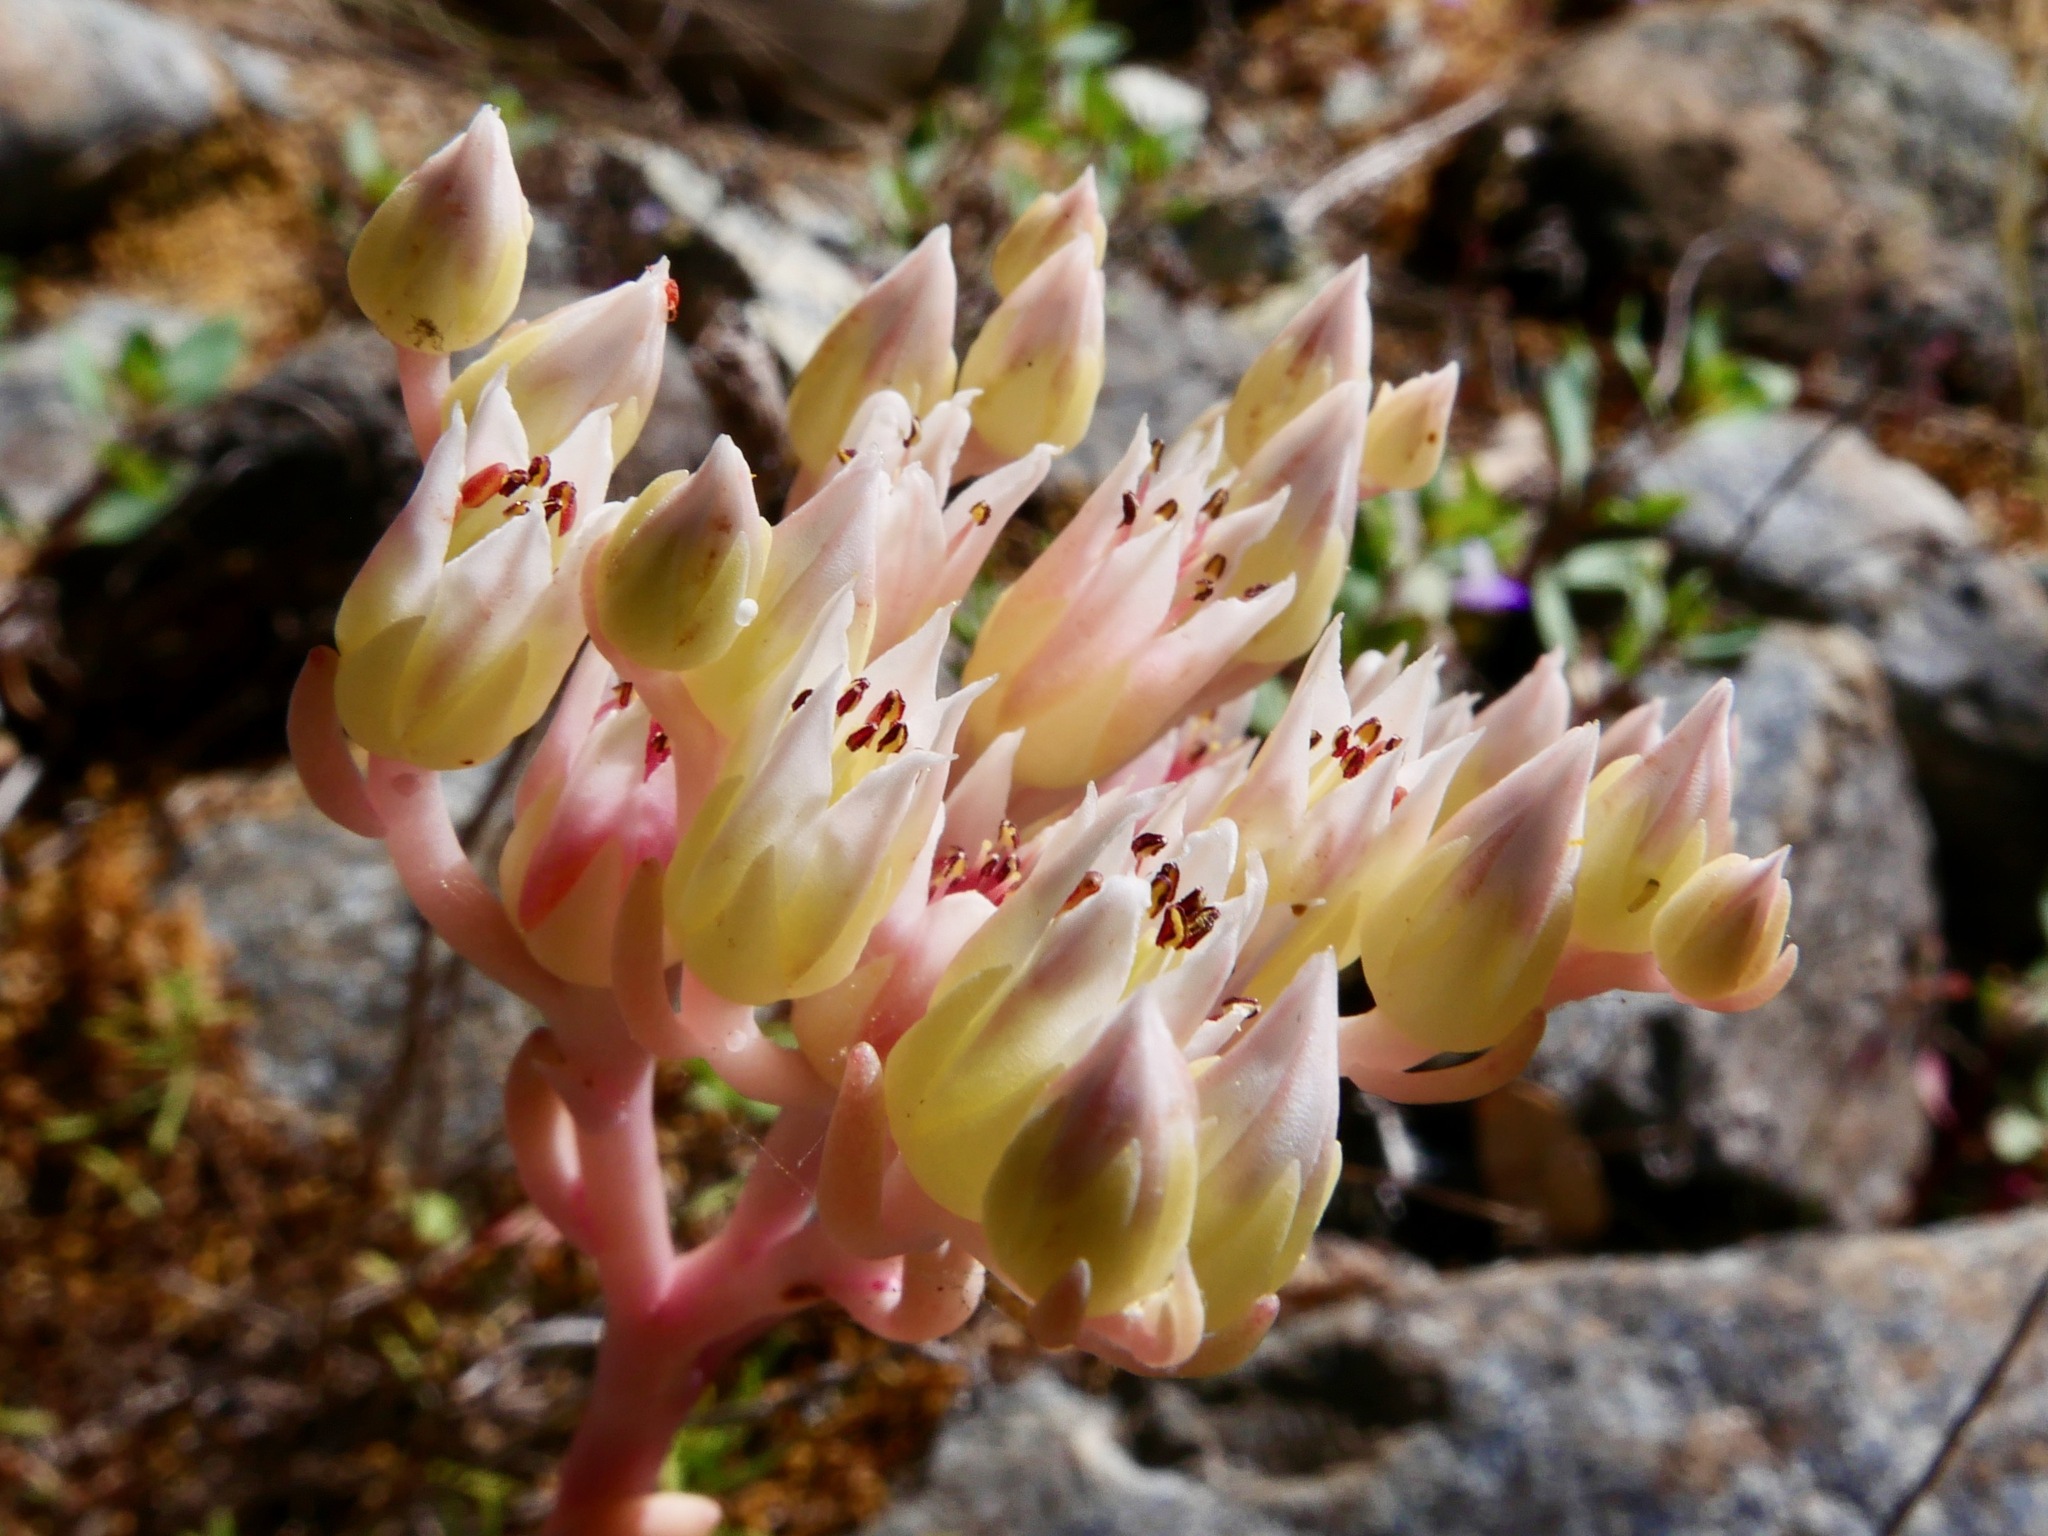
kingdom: Plantae
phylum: Tracheophyta
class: Magnoliopsida
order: Saxifragales
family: Crassulaceae
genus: Sedum
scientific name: Sedum laxum
